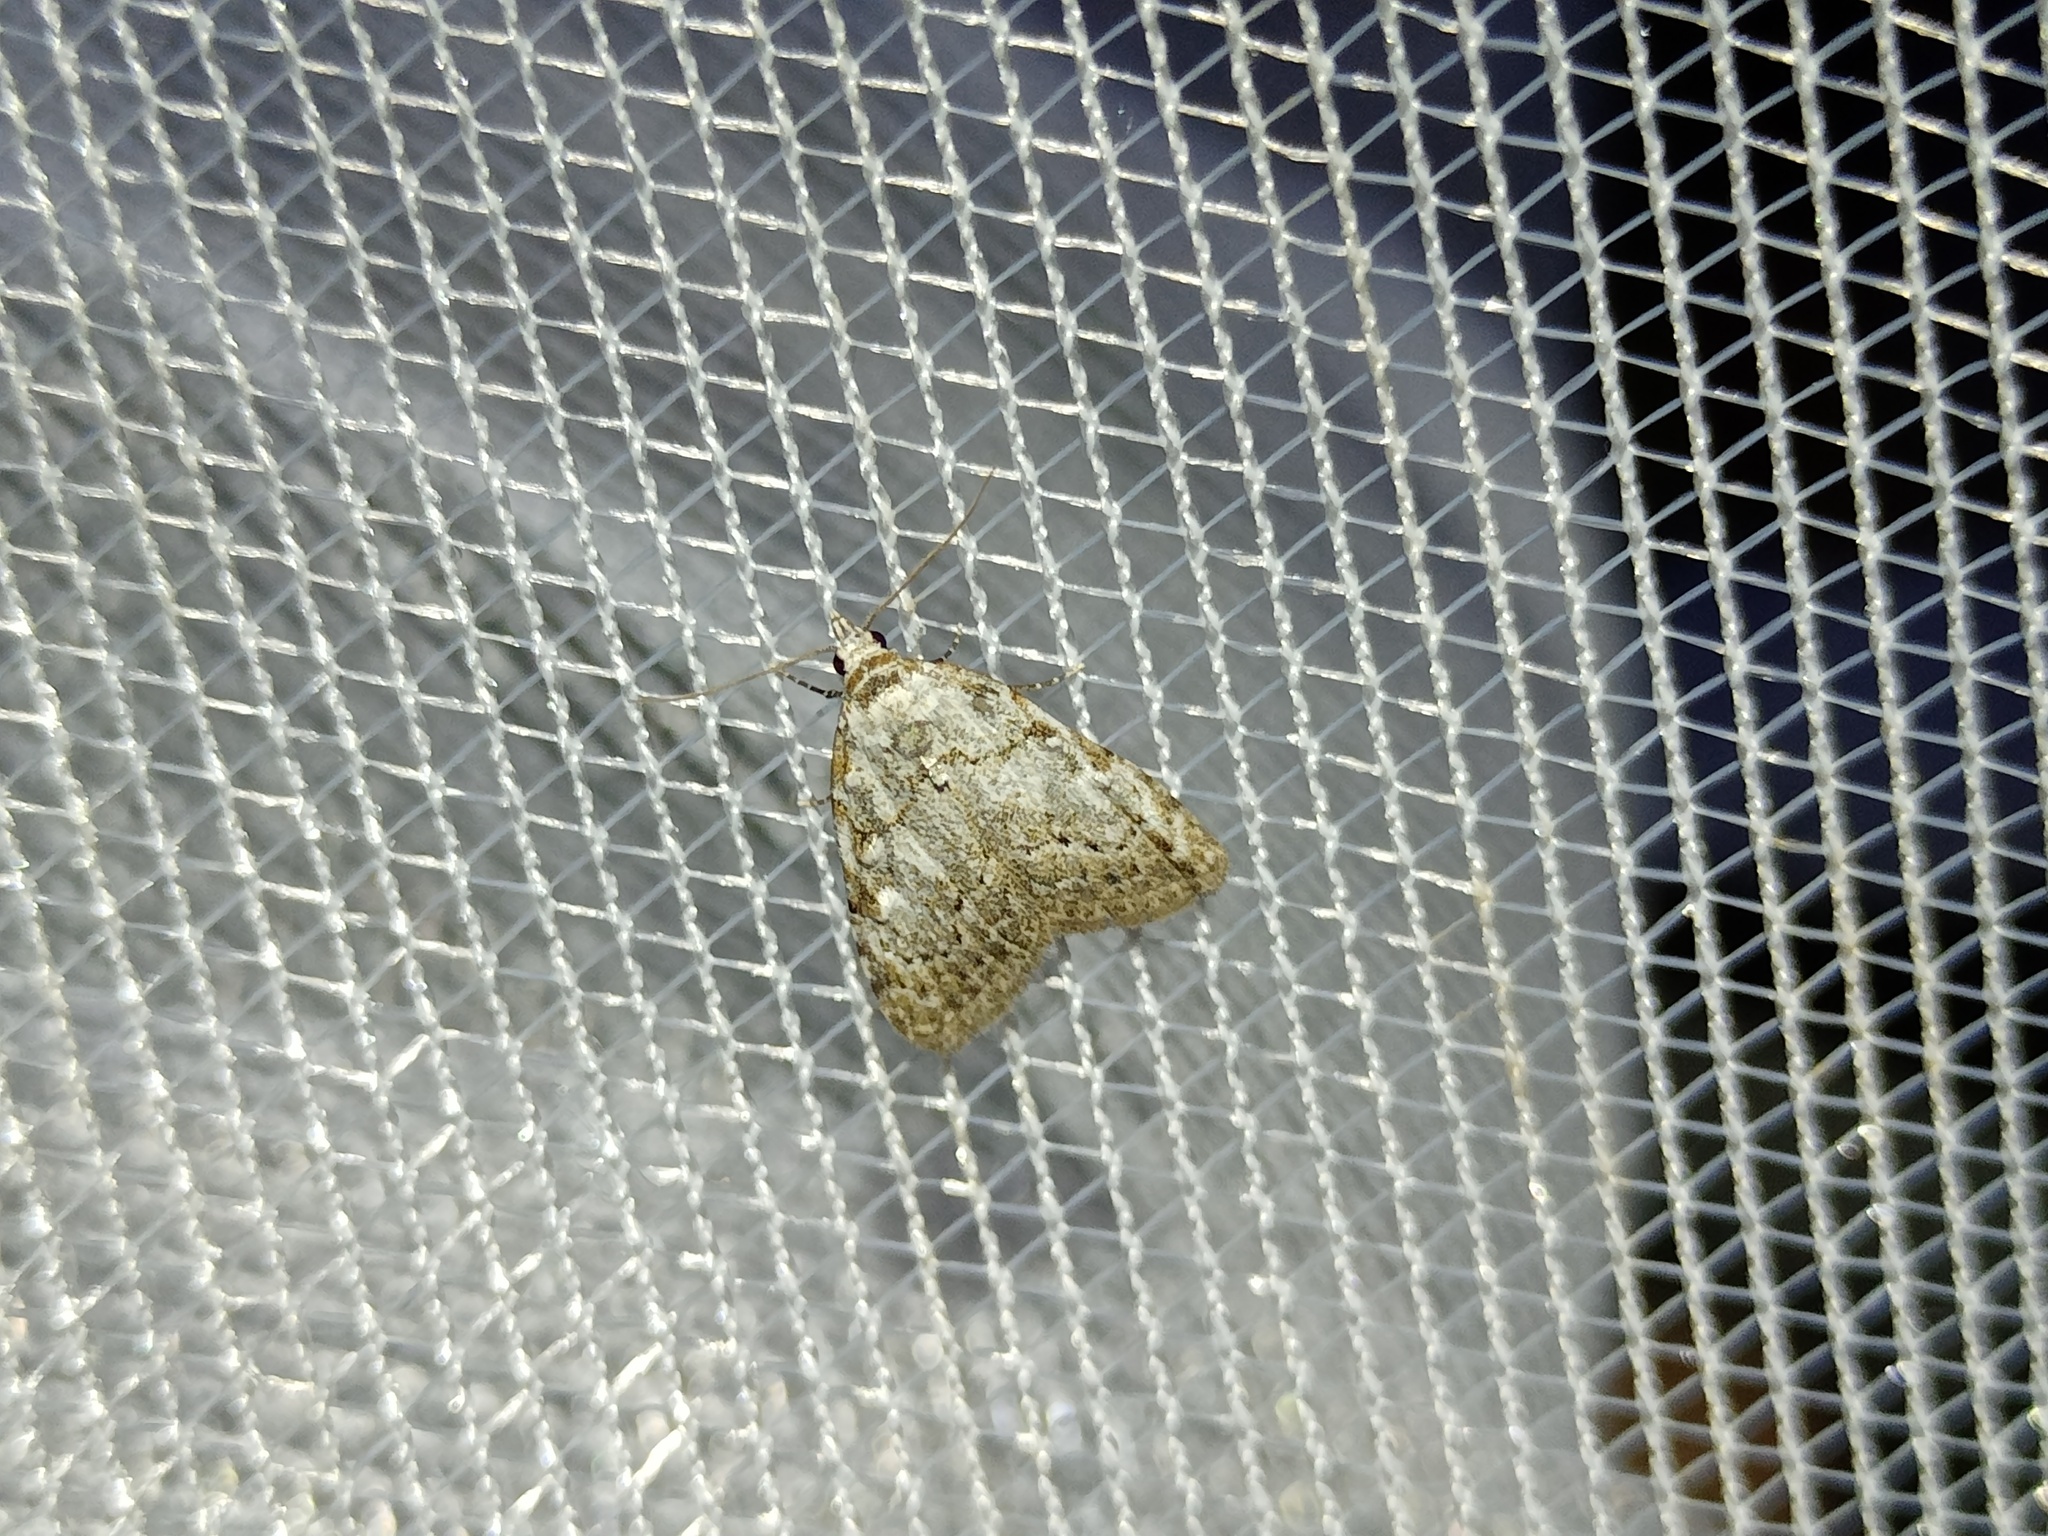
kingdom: Animalia
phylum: Arthropoda
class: Insecta
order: Lepidoptera
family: Nolidae
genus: Nola
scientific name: Nola confusalis
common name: Least black arches
